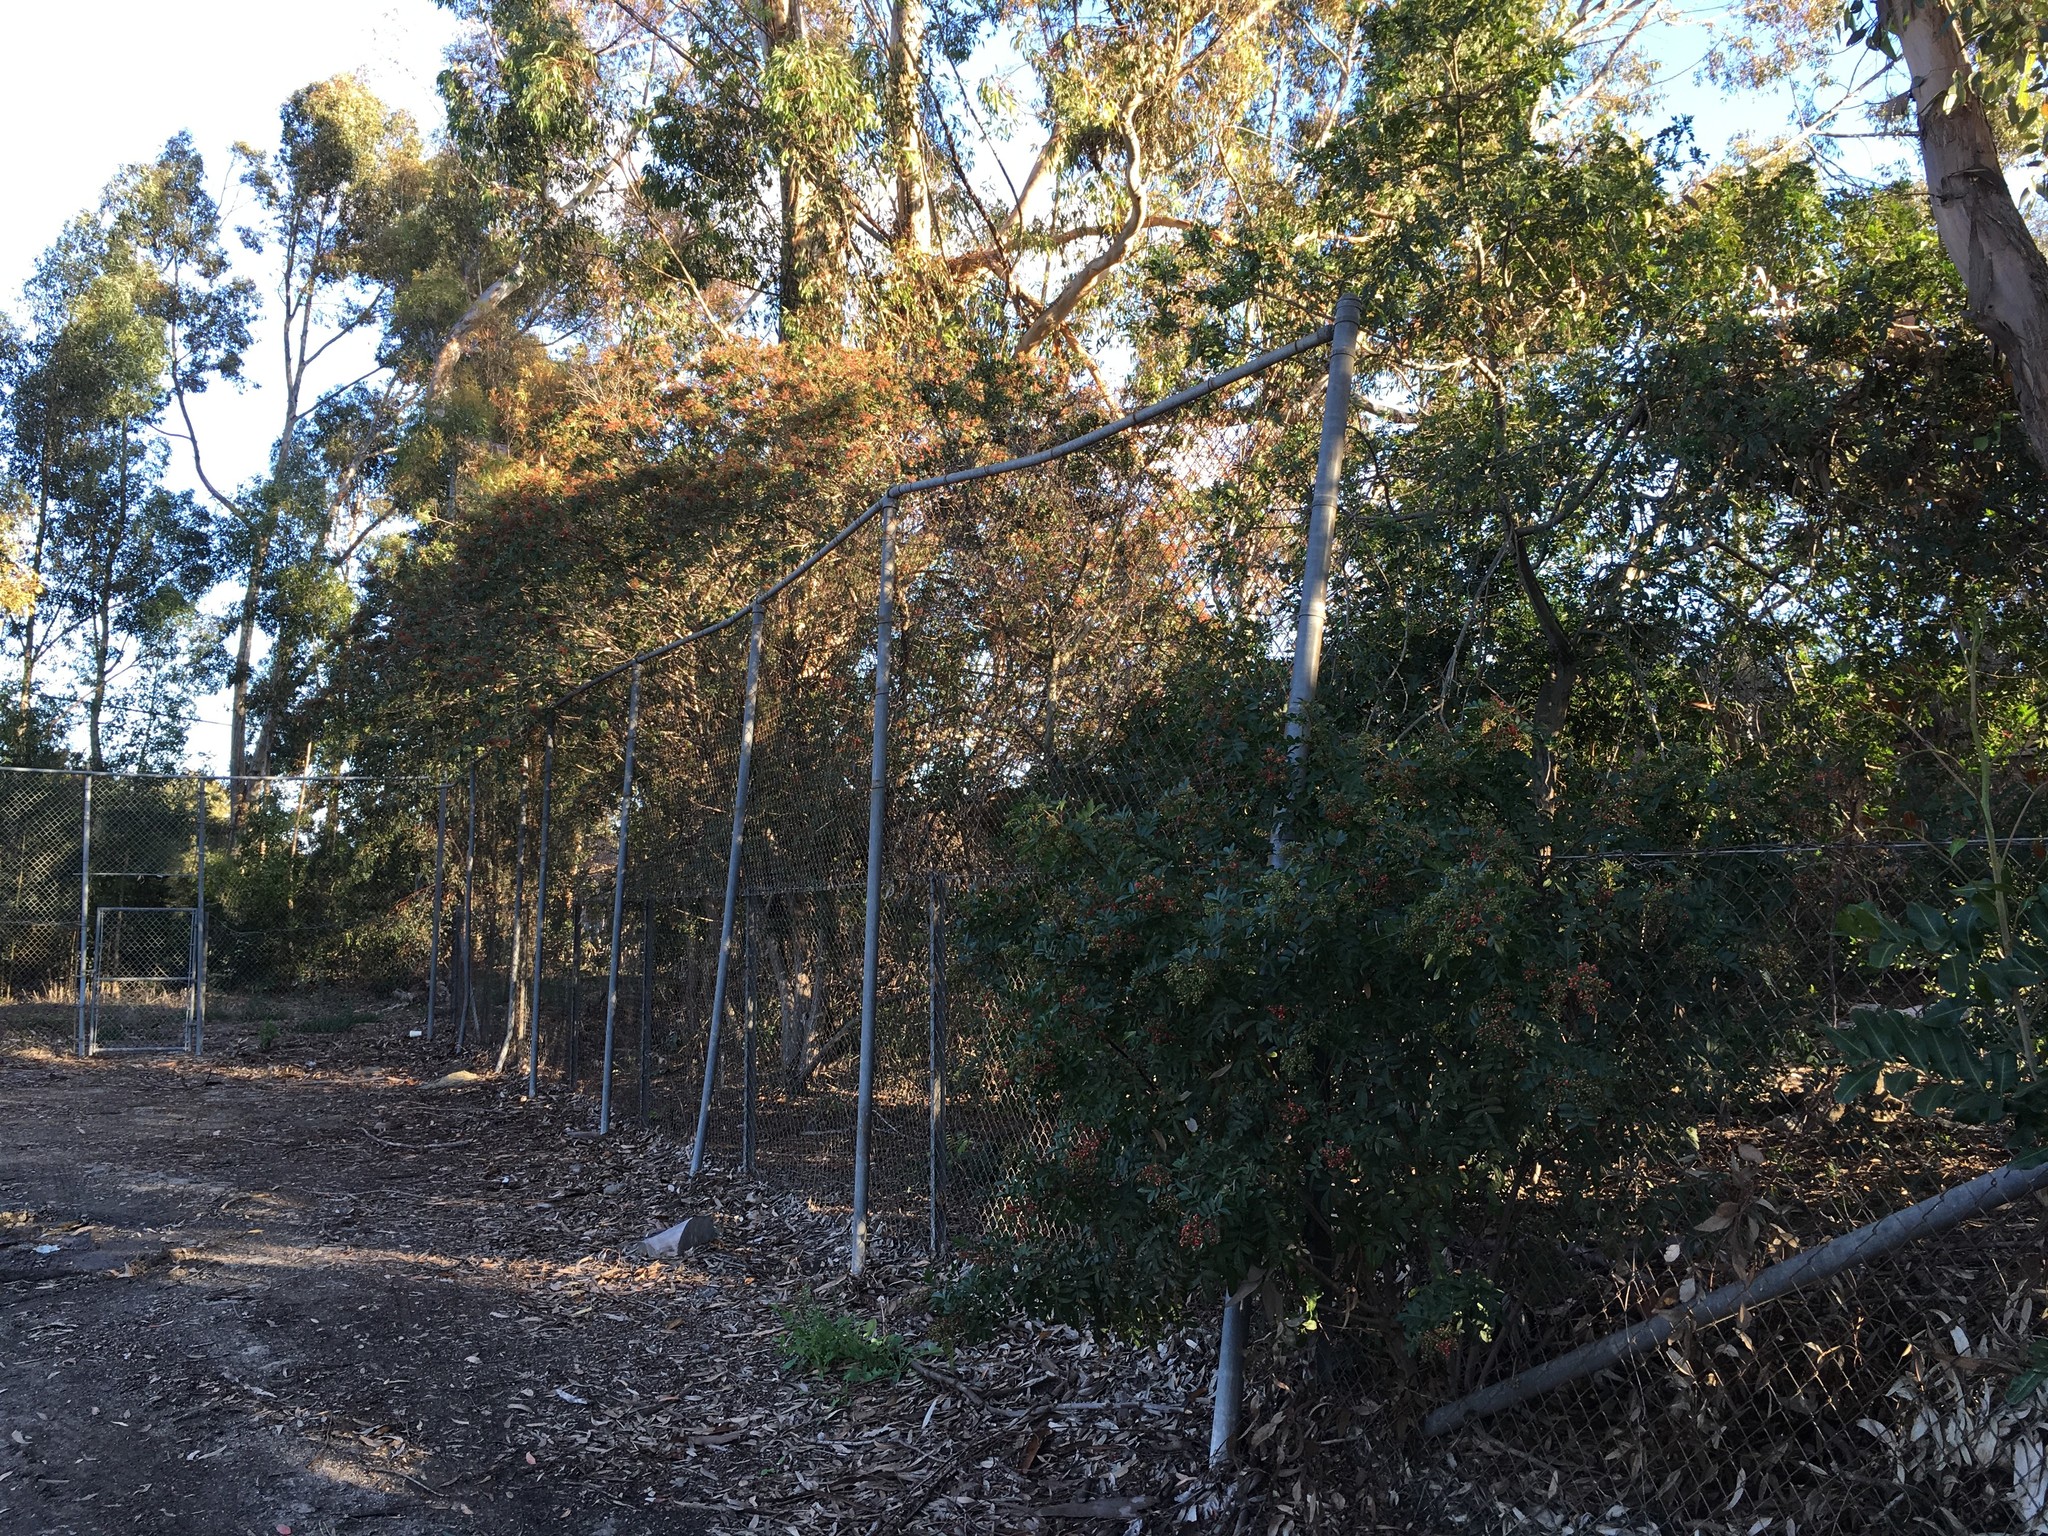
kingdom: Plantae
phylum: Tracheophyta
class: Magnoliopsida
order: Sapindales
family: Anacardiaceae
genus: Schinus
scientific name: Schinus terebinthifolia
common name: Brazilian peppertree
